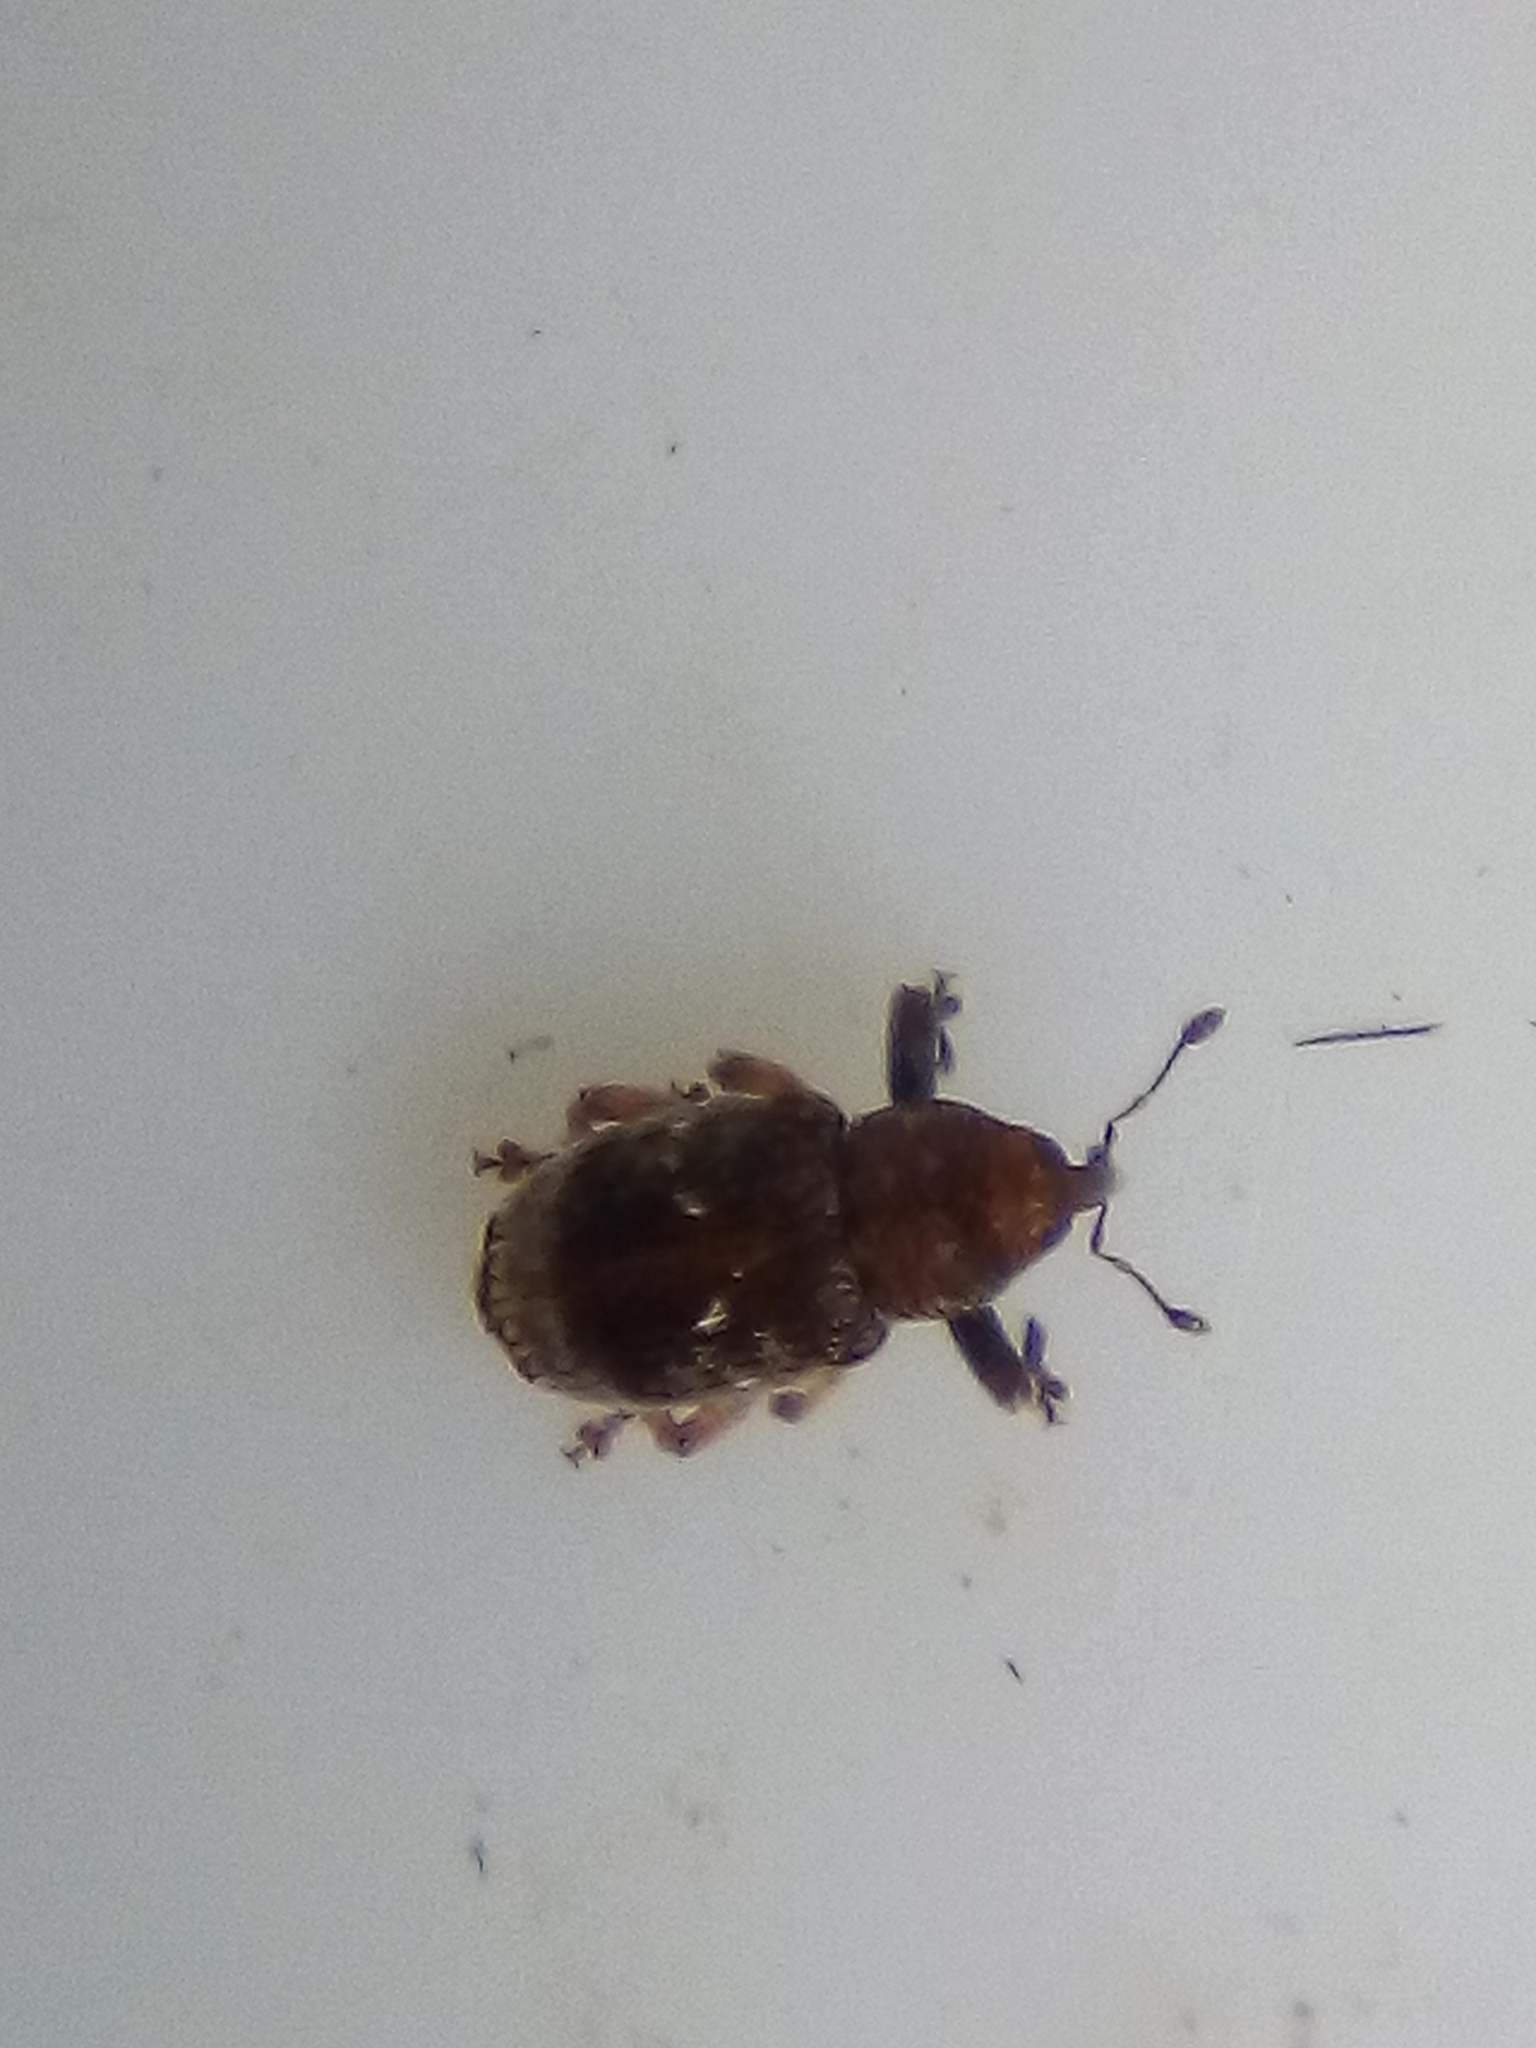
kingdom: Animalia
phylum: Arthropoda
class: Insecta
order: Coleoptera
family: Curculionidae
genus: Aneuma
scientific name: Aneuma fasciatum
